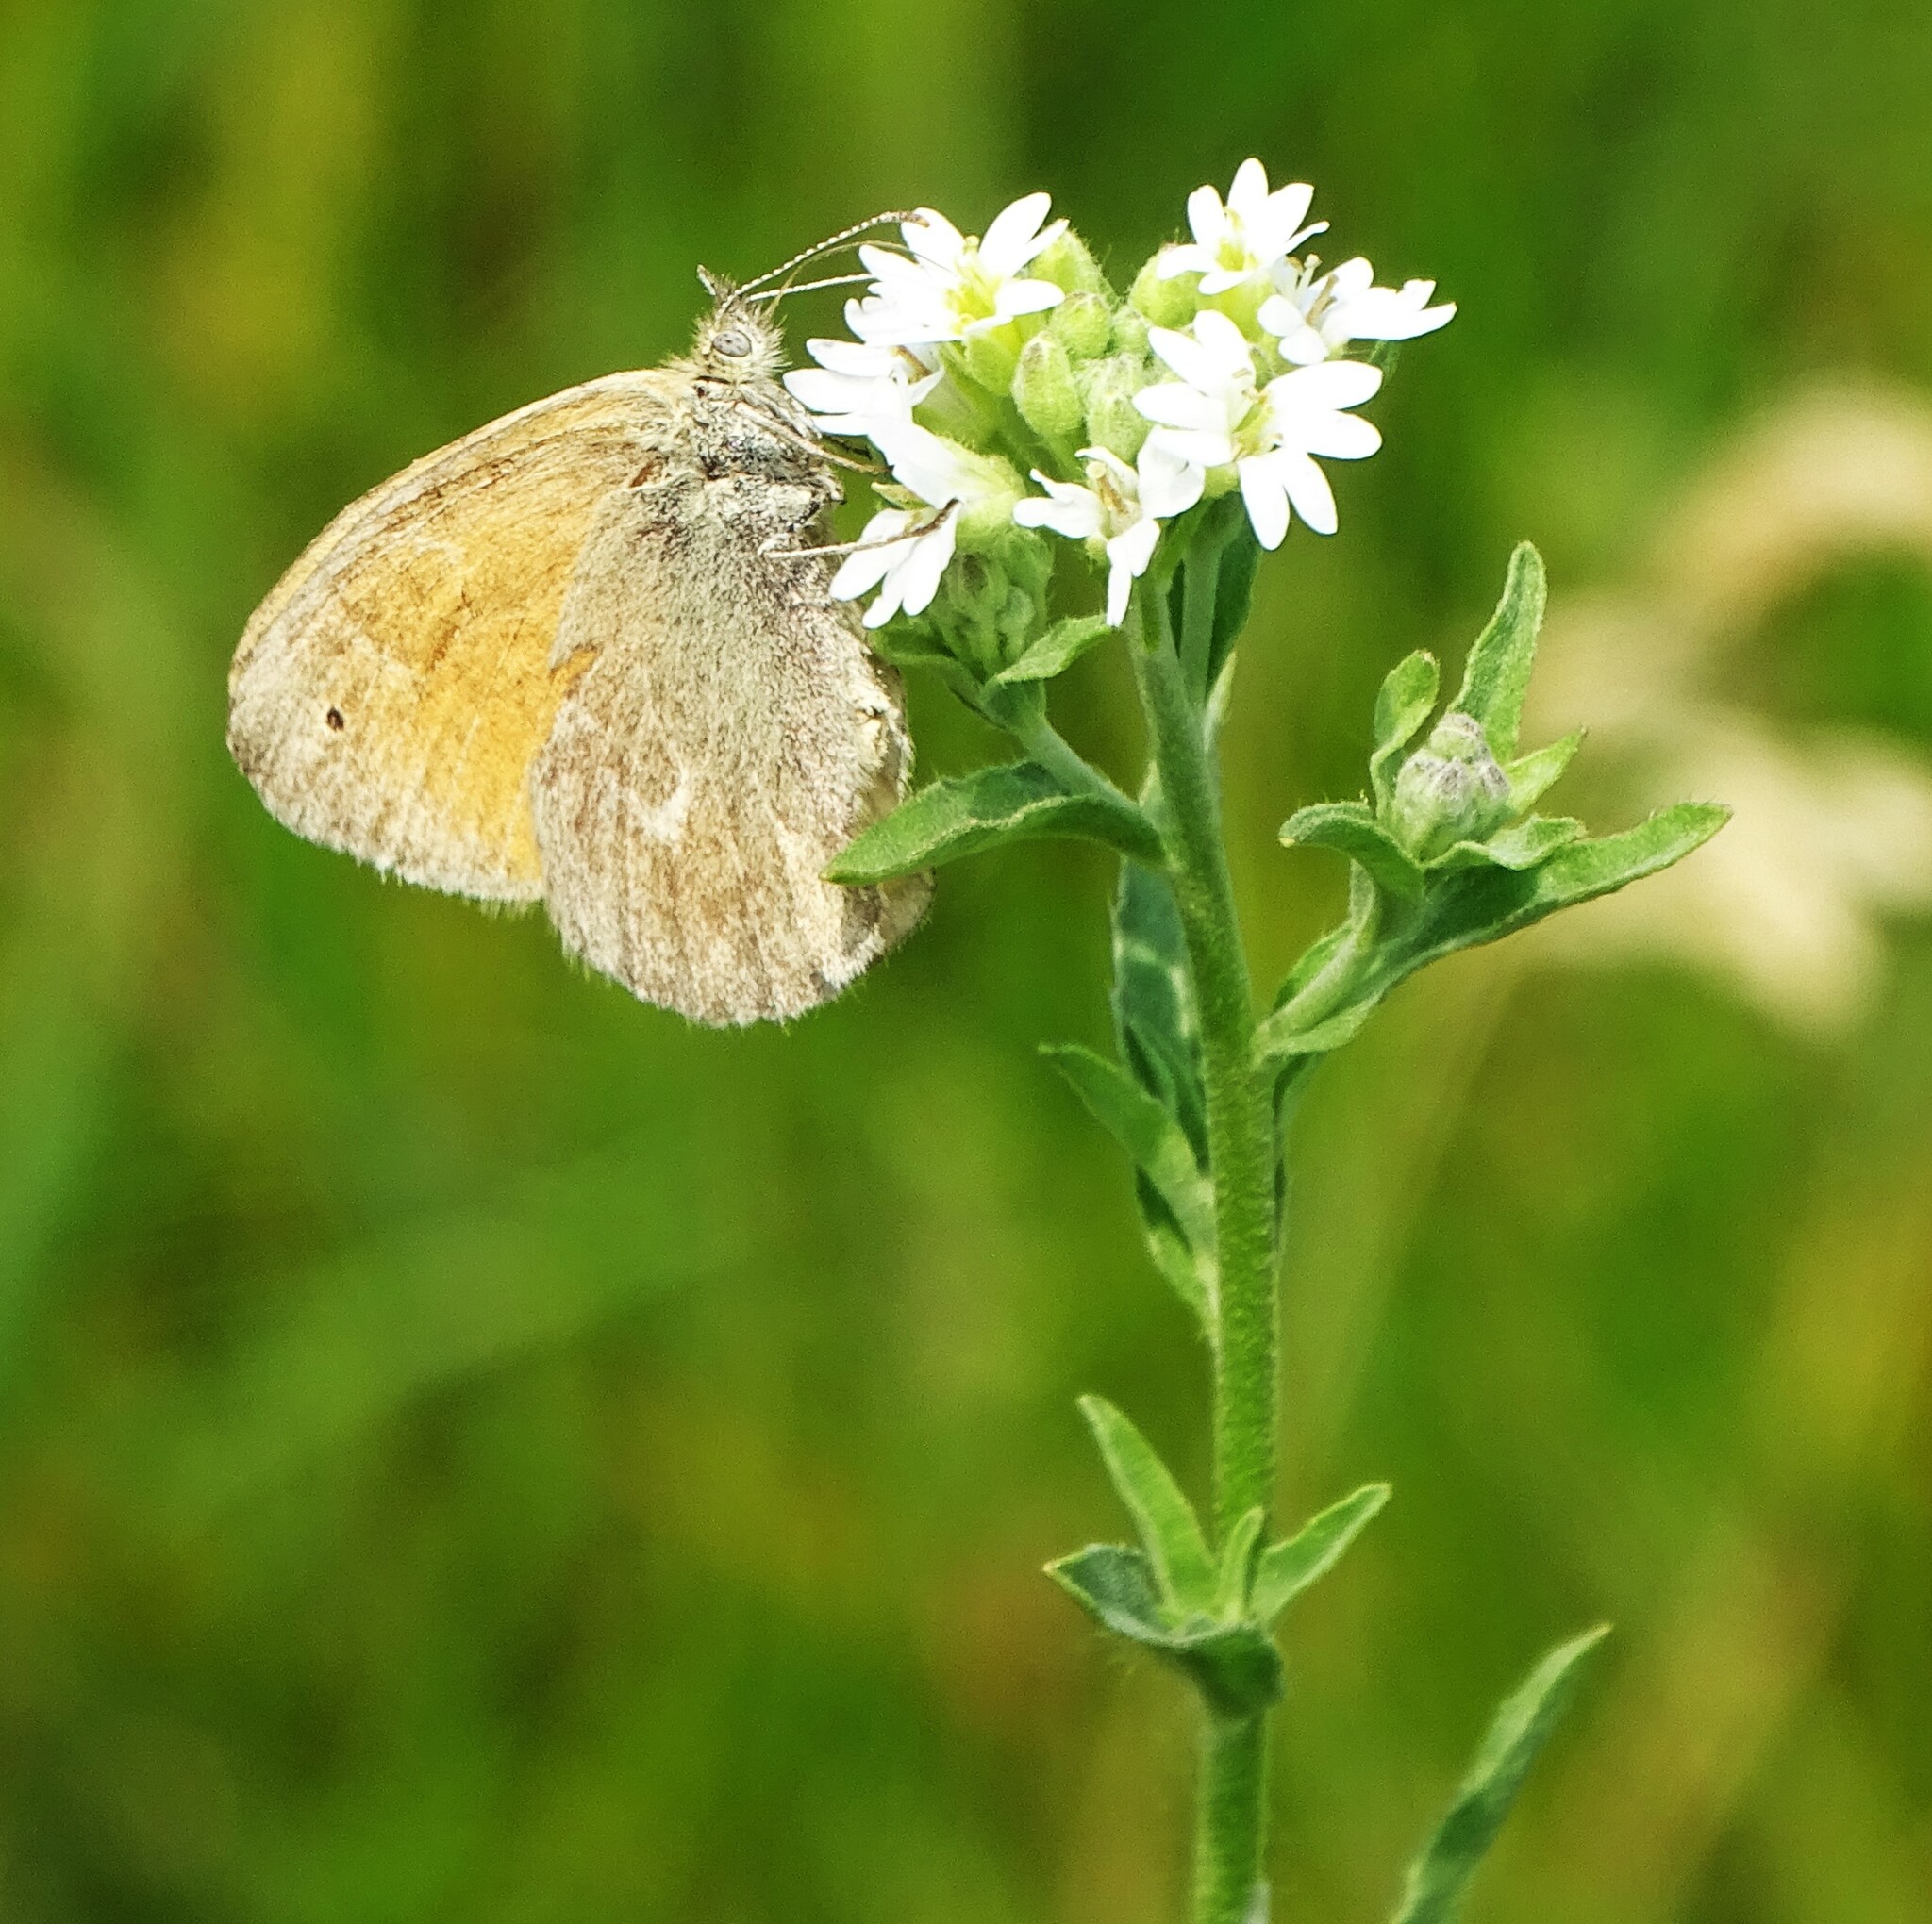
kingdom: Animalia
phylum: Arthropoda
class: Insecta
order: Lepidoptera
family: Nymphalidae
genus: Coenonympha
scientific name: Coenonympha california
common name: Common ringlet
